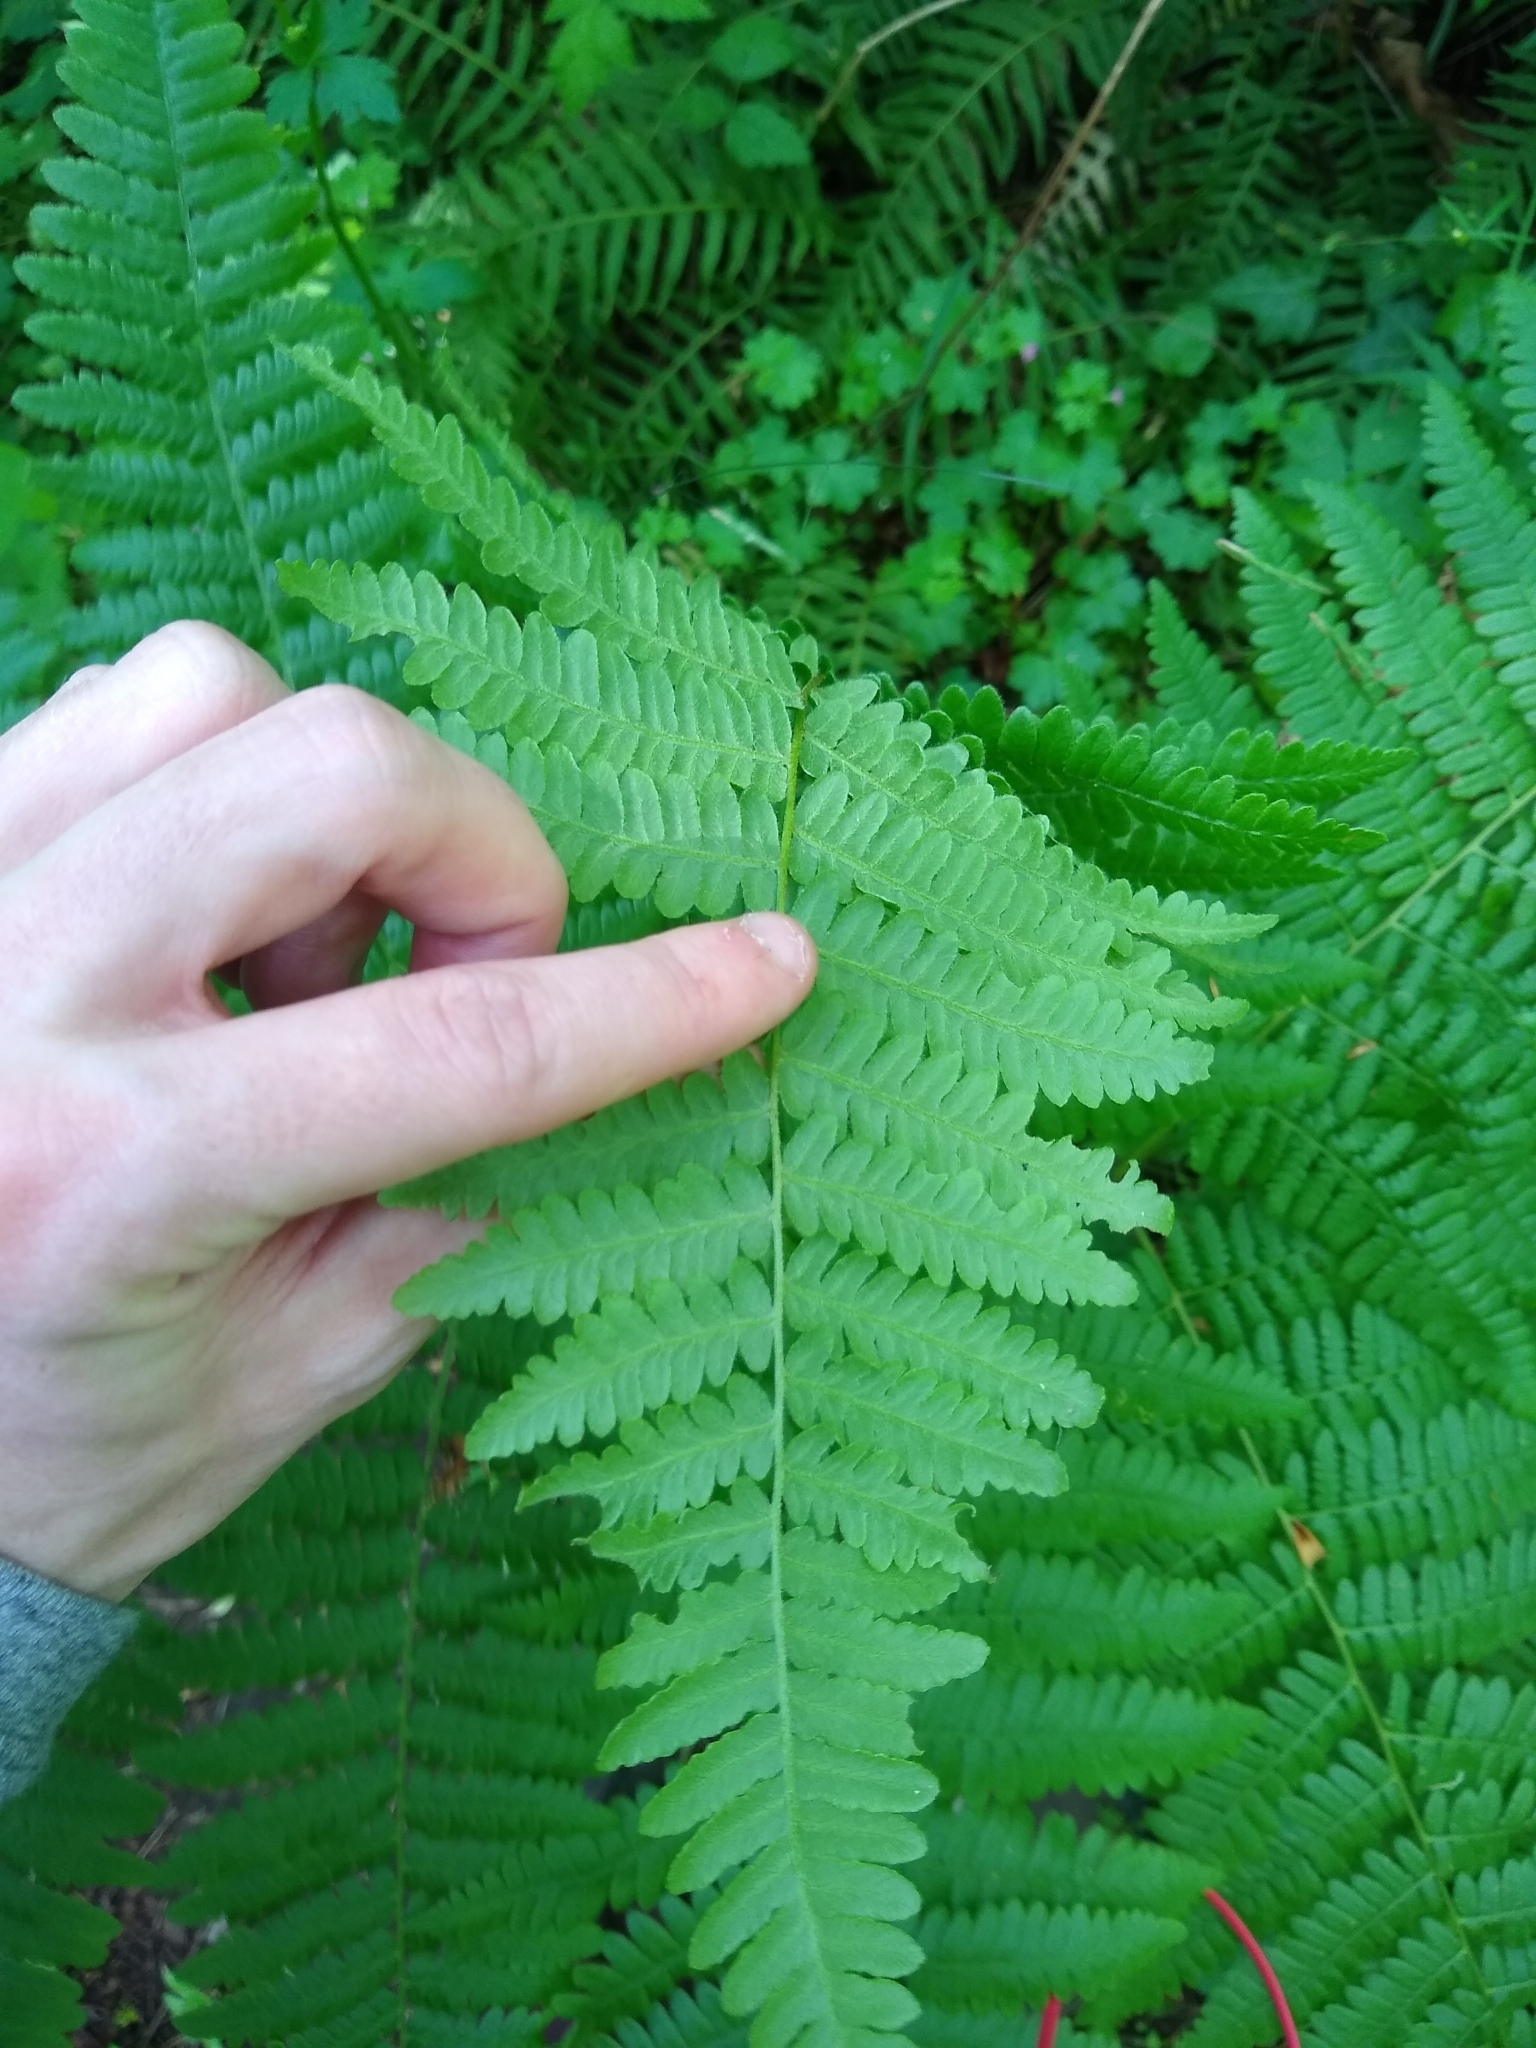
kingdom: Plantae
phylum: Tracheophyta
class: Polypodiopsida
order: Polypodiales
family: Dennstaedtiaceae
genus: Pteridium
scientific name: Pteridium aquilinum
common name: Bracken
